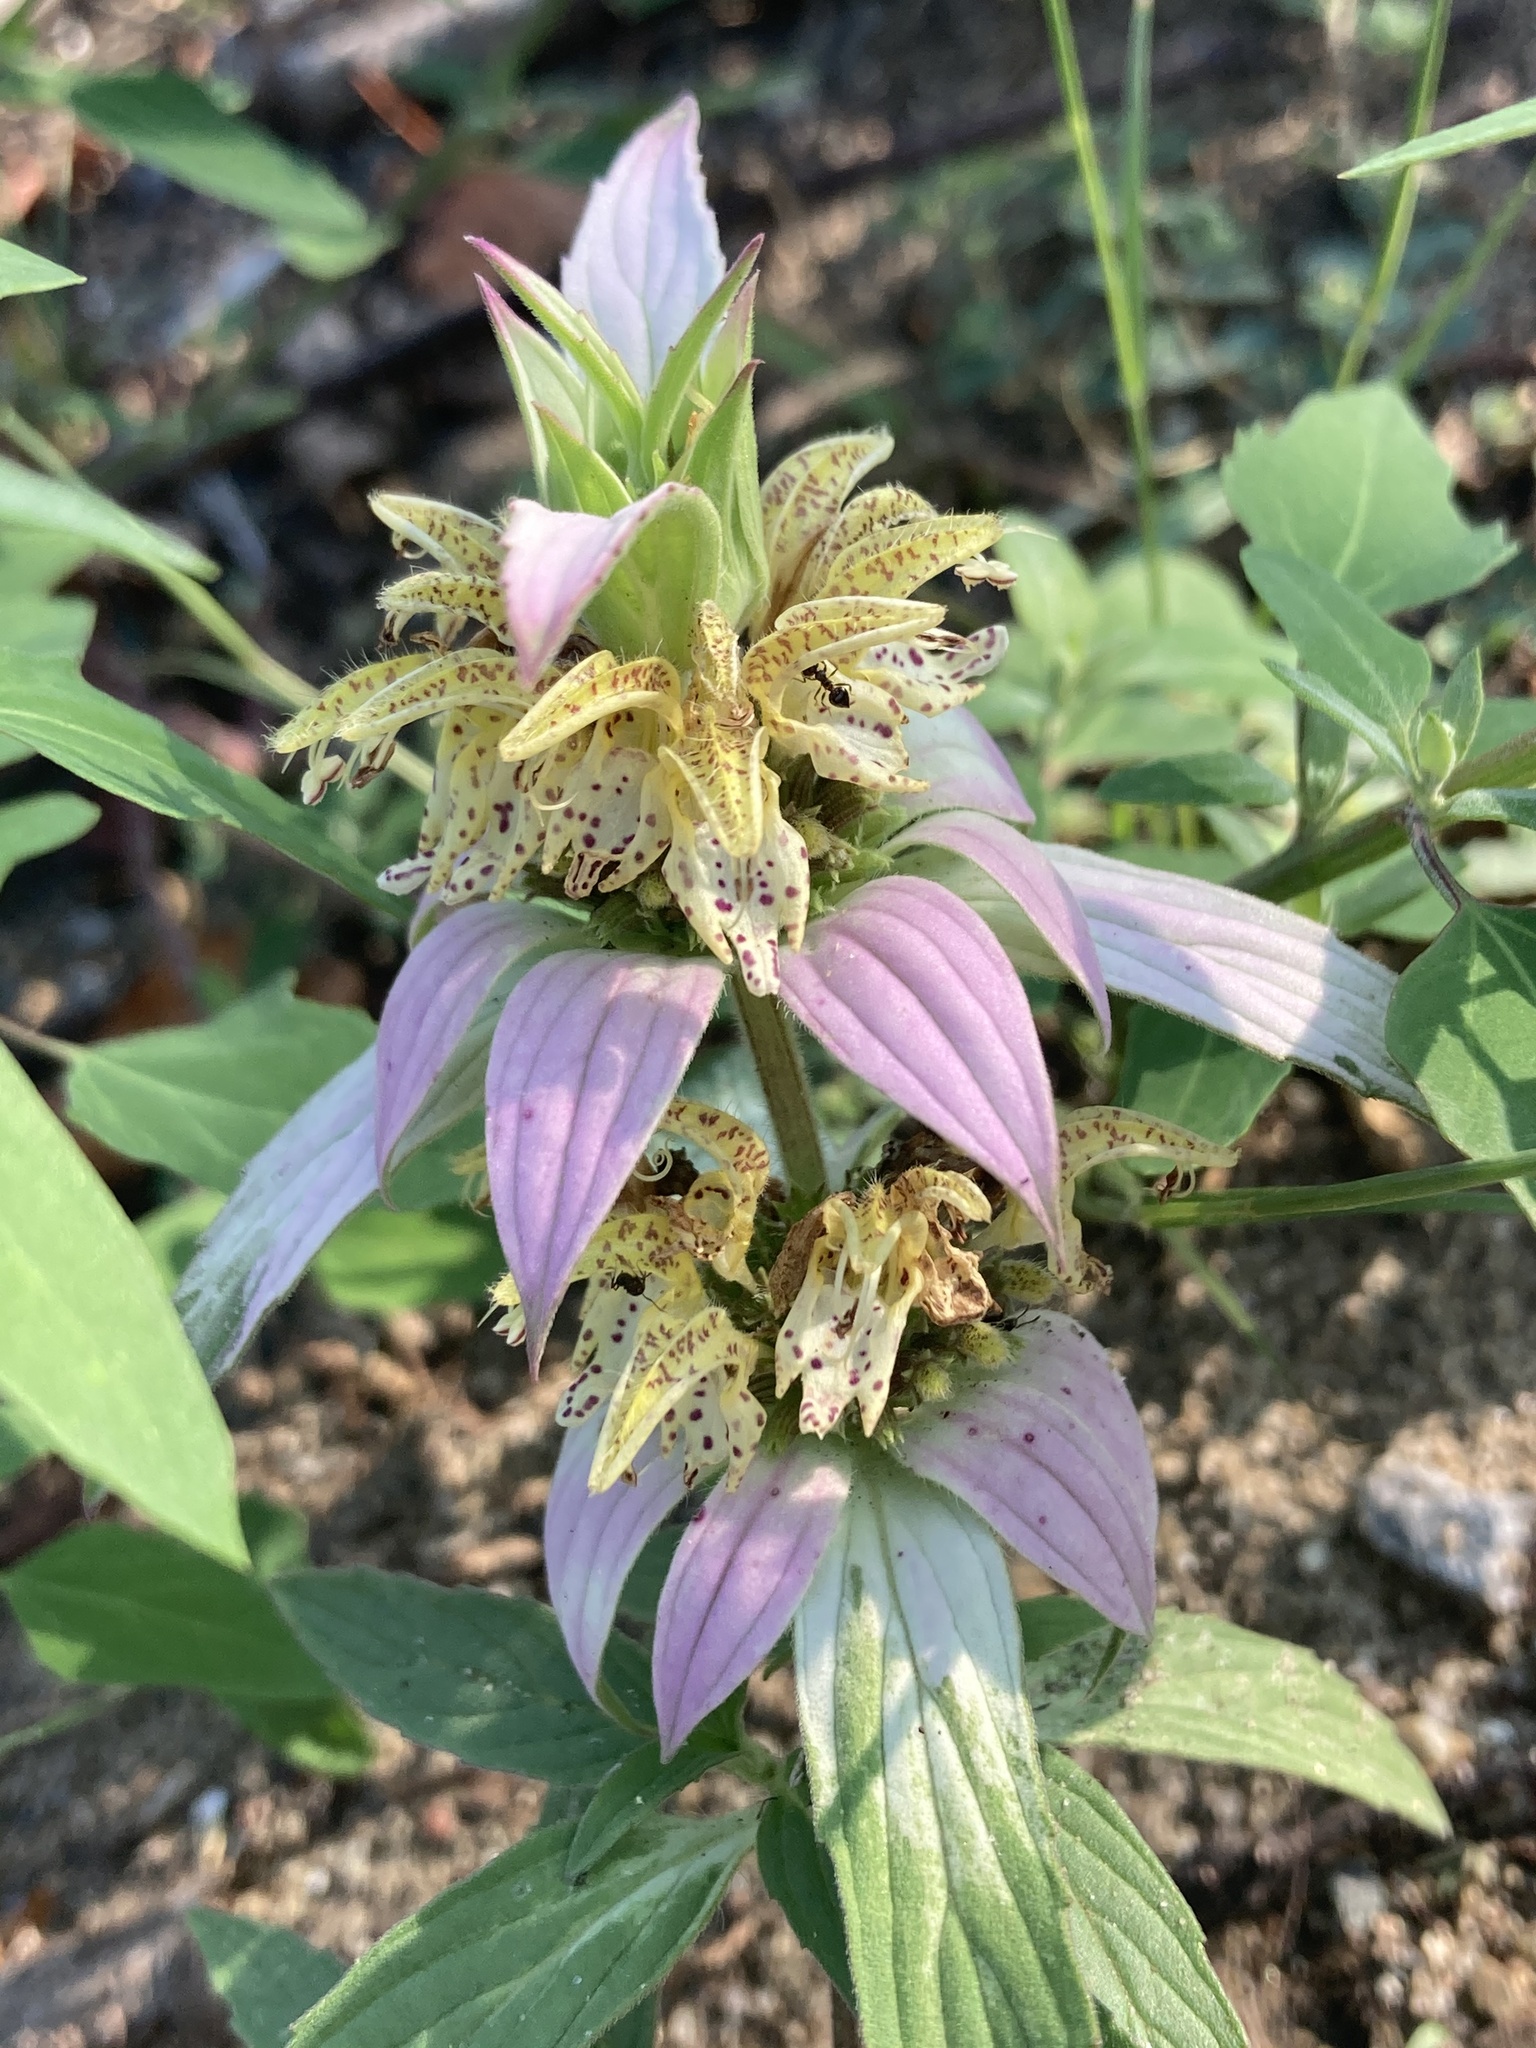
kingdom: Plantae
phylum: Tracheophyta
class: Magnoliopsida
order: Lamiales
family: Lamiaceae
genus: Monarda
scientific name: Monarda punctata
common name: Dotted monarda
